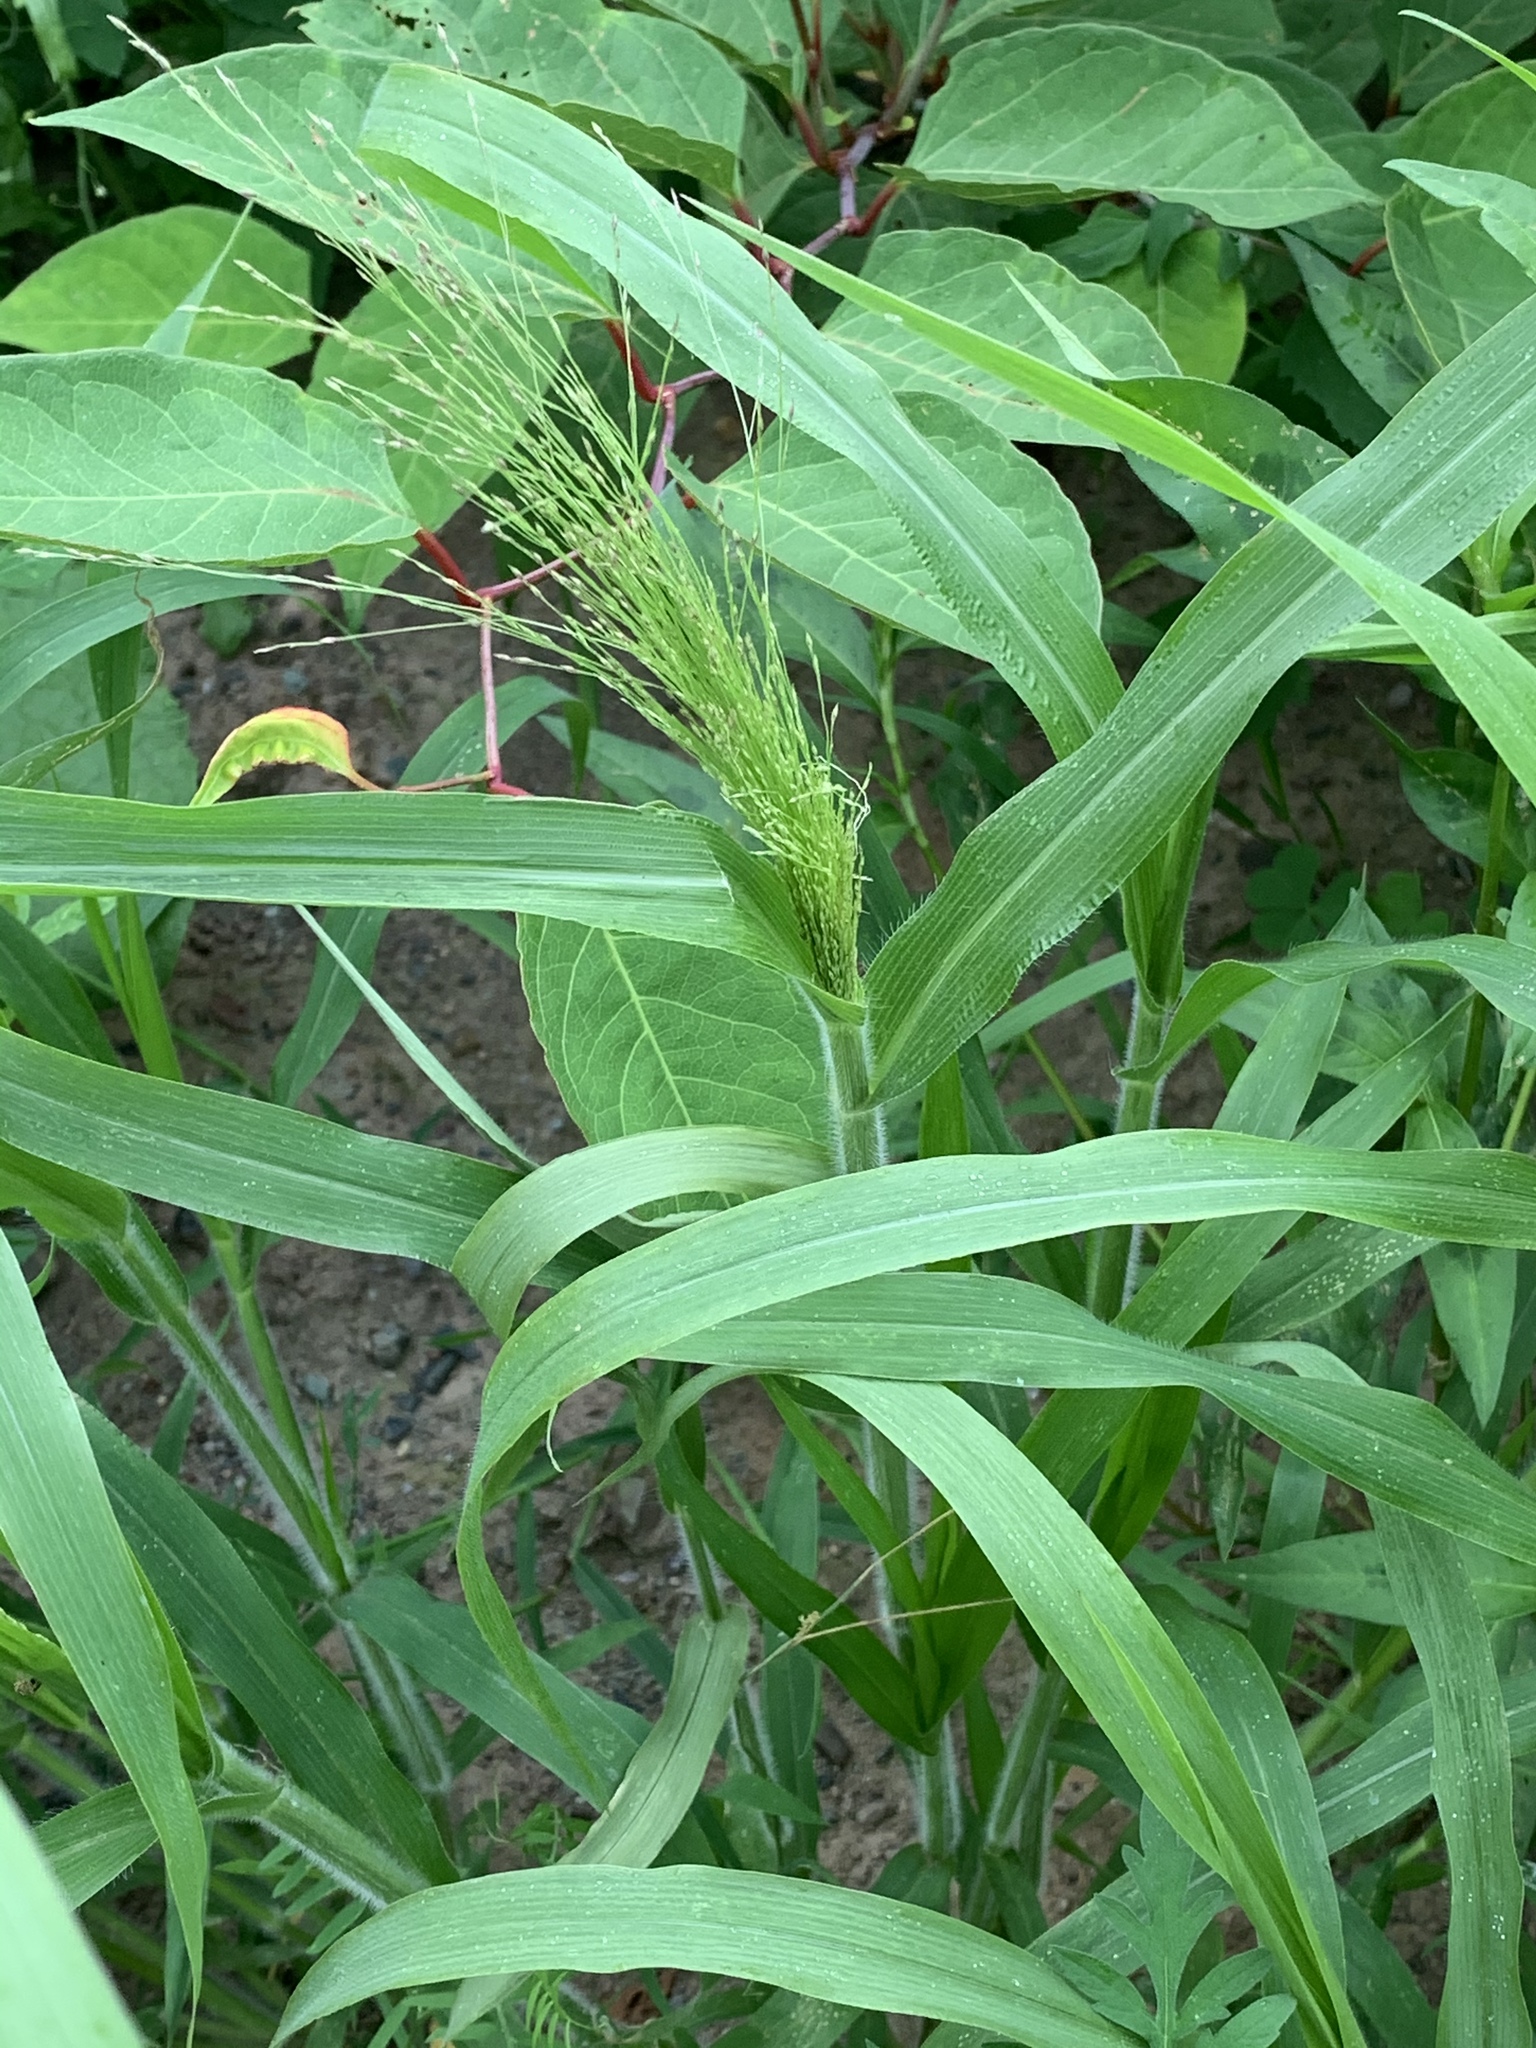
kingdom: Plantae
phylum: Tracheophyta
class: Liliopsida
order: Poales
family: Poaceae
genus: Panicum
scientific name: Panicum capillare
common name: Witch-grass
